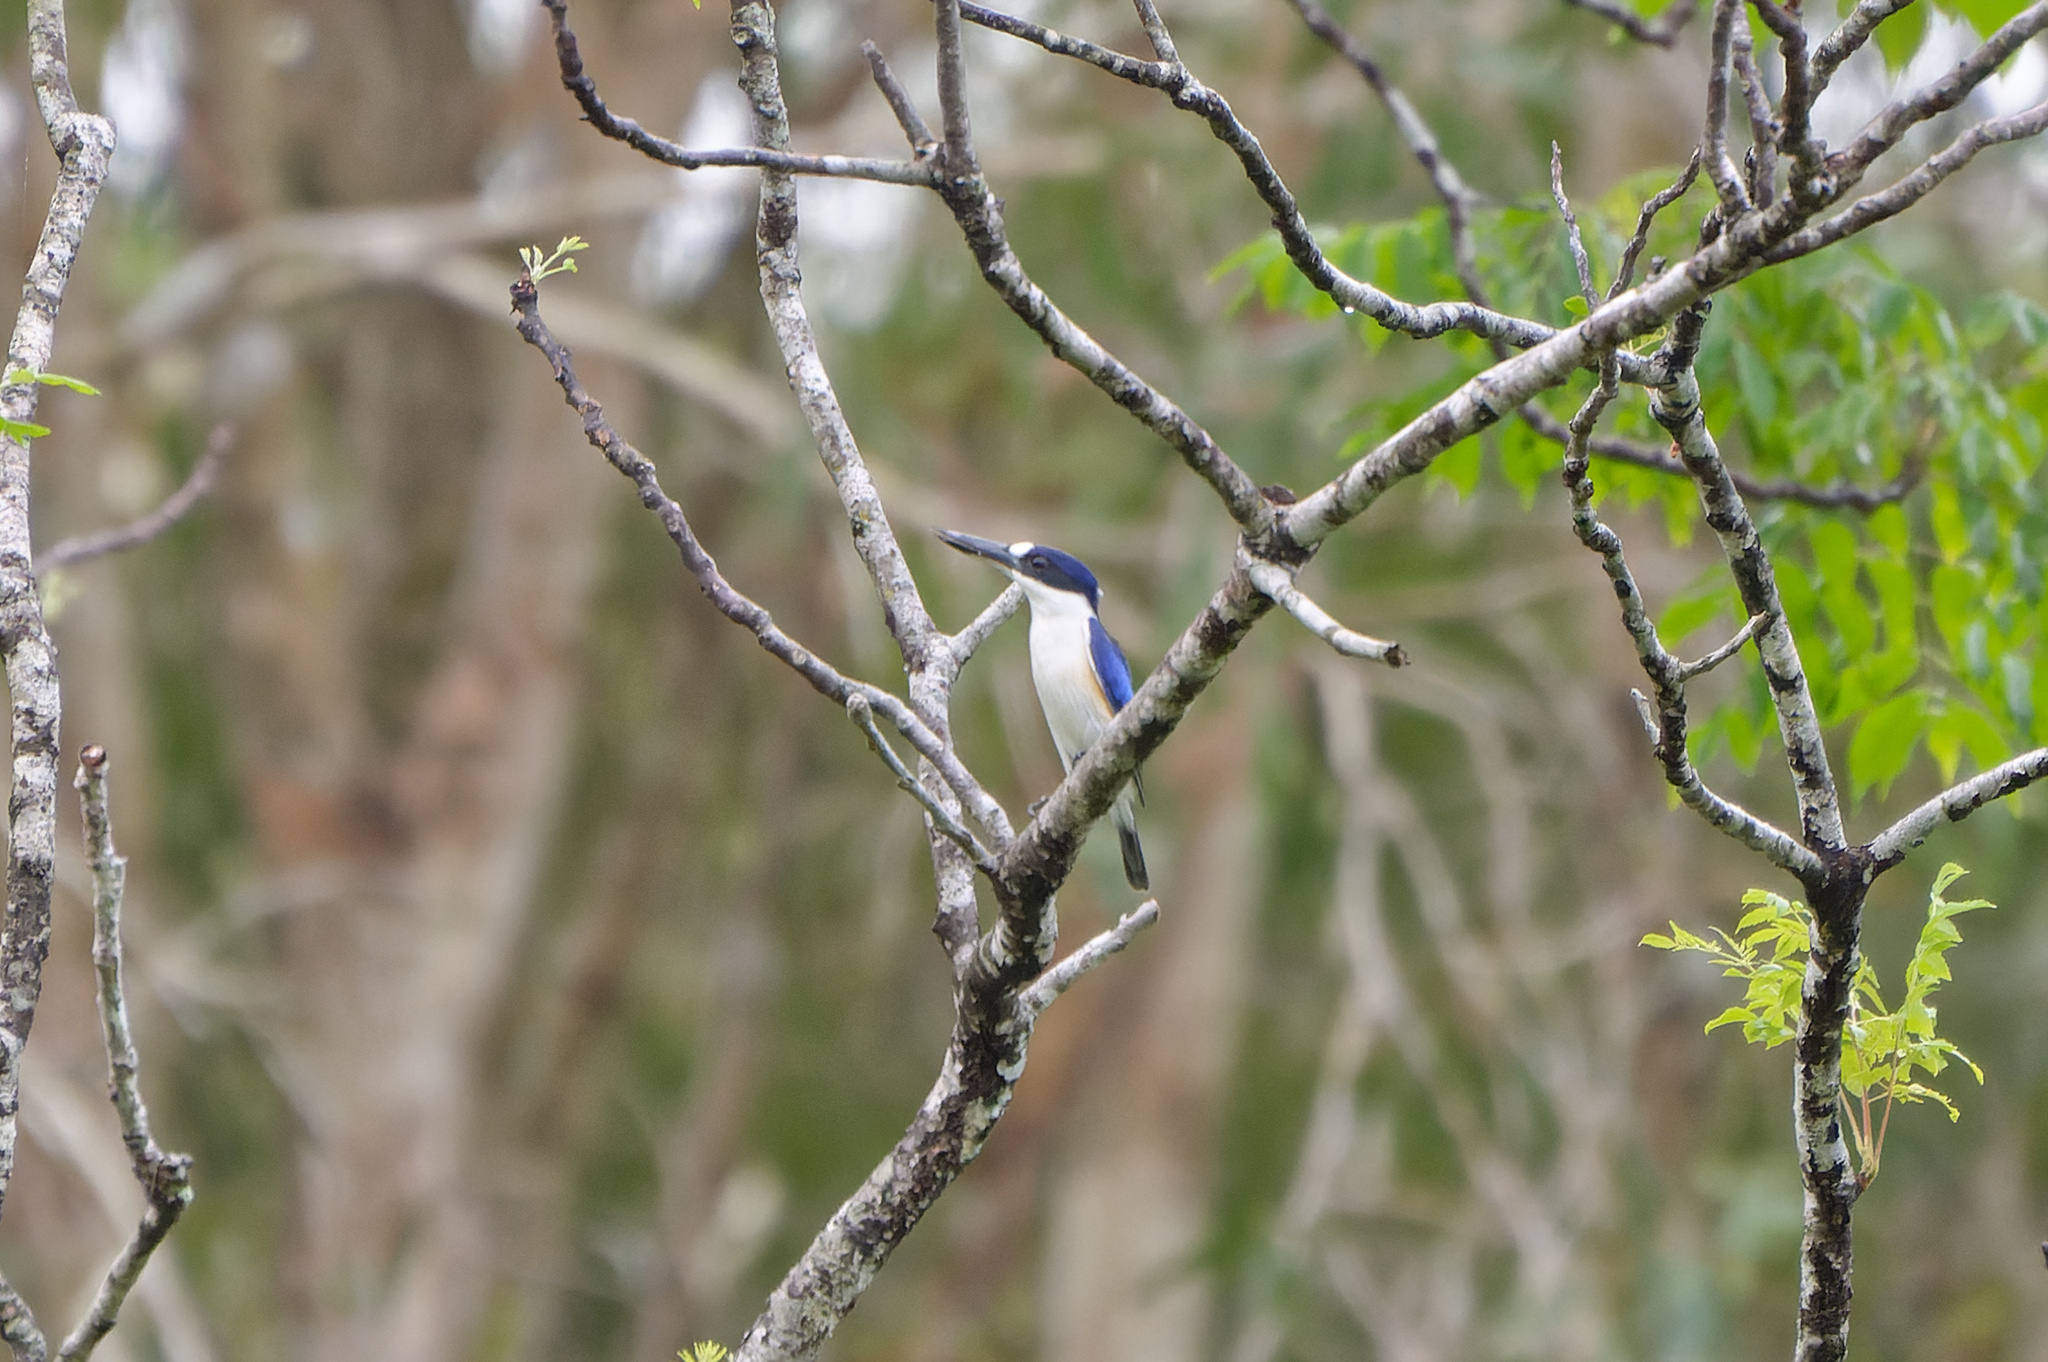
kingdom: Animalia
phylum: Chordata
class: Aves
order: Coraciiformes
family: Alcedinidae
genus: Todiramphus
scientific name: Todiramphus macleayii
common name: Forest kingfisher
